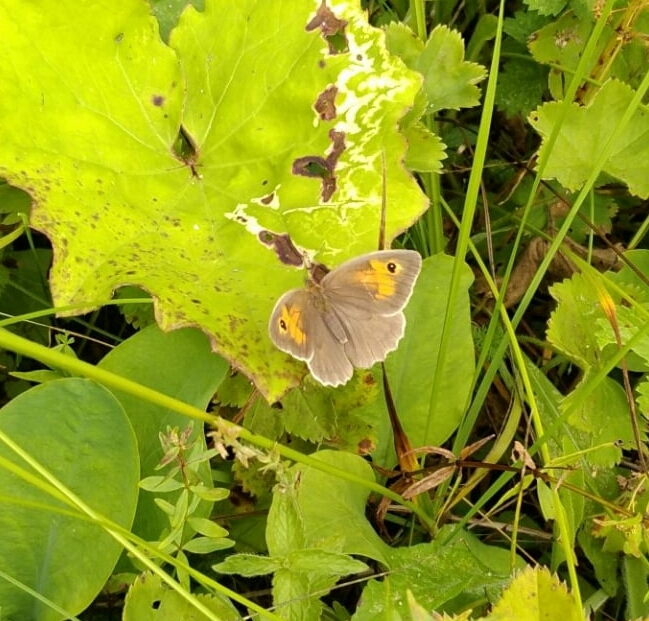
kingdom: Animalia
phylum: Arthropoda
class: Insecta
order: Lepidoptera
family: Nymphalidae
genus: Maniola
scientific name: Maniola jurtina
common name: Meadow brown
